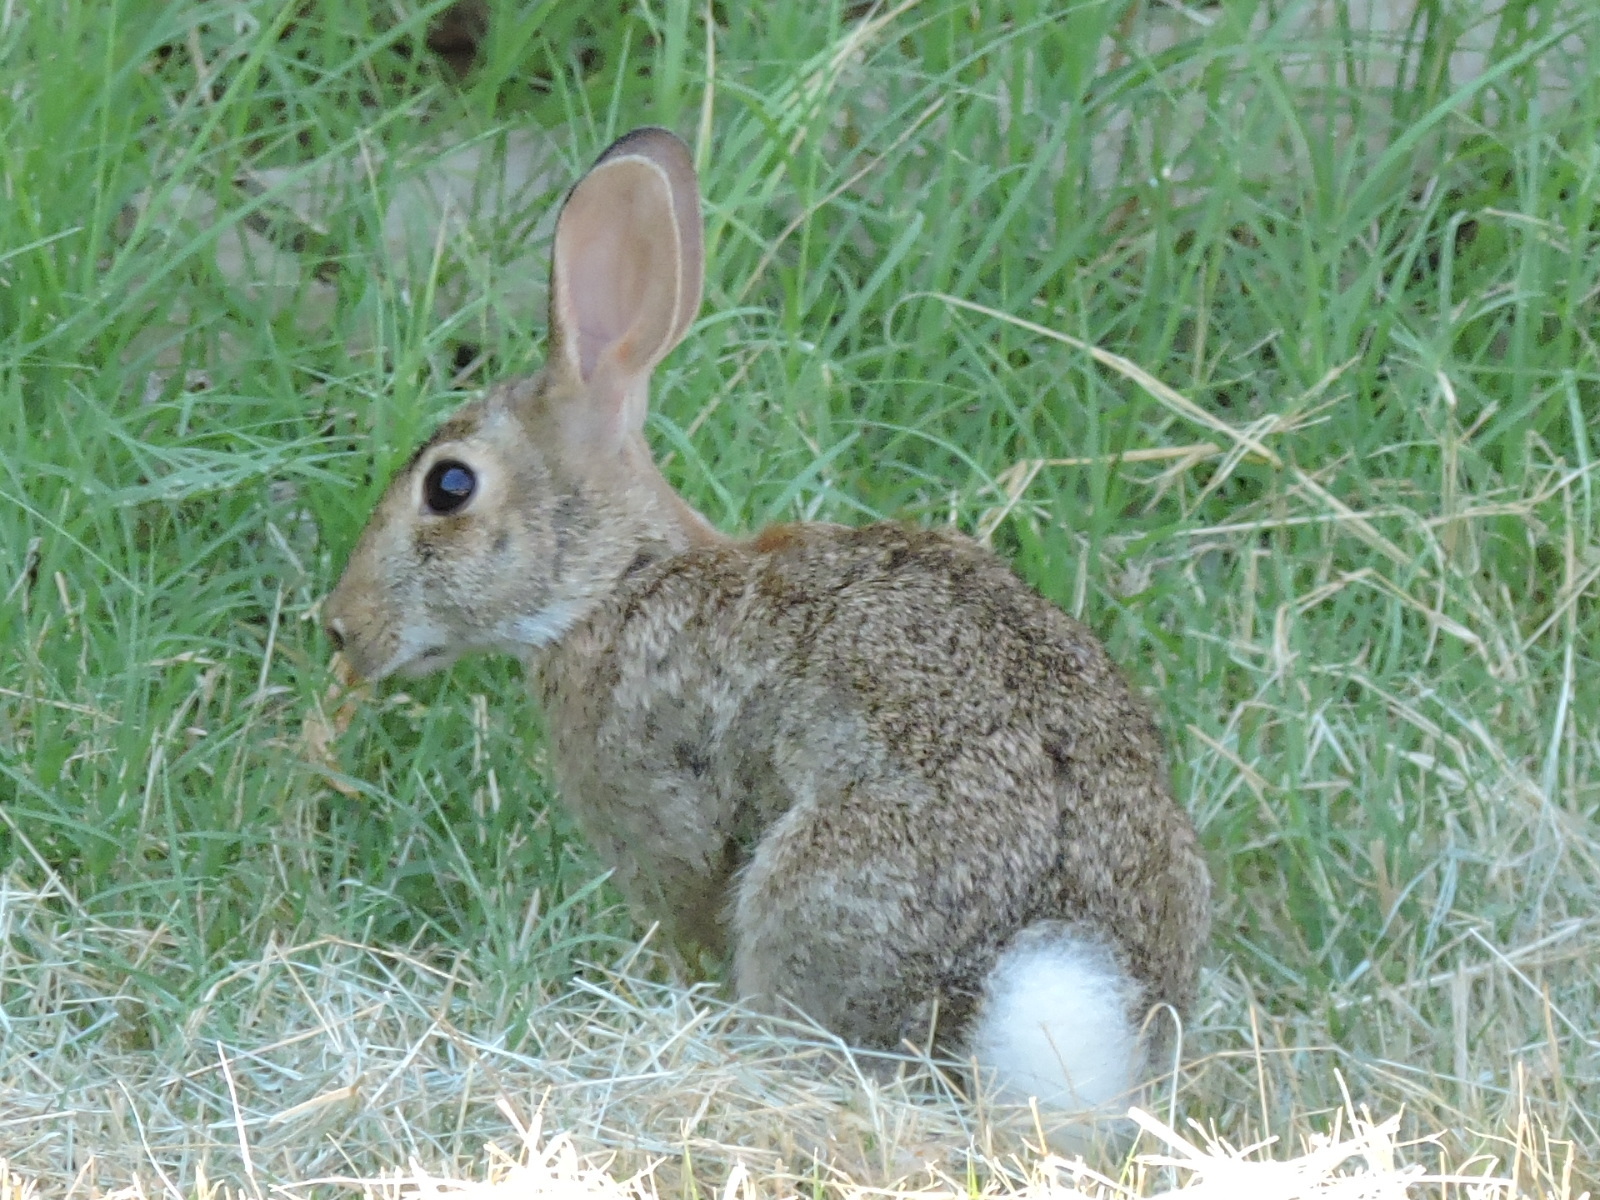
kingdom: Animalia
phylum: Chordata
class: Mammalia
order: Lagomorpha
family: Leporidae
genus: Sylvilagus
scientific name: Sylvilagus floridanus
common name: Eastern cottontail
